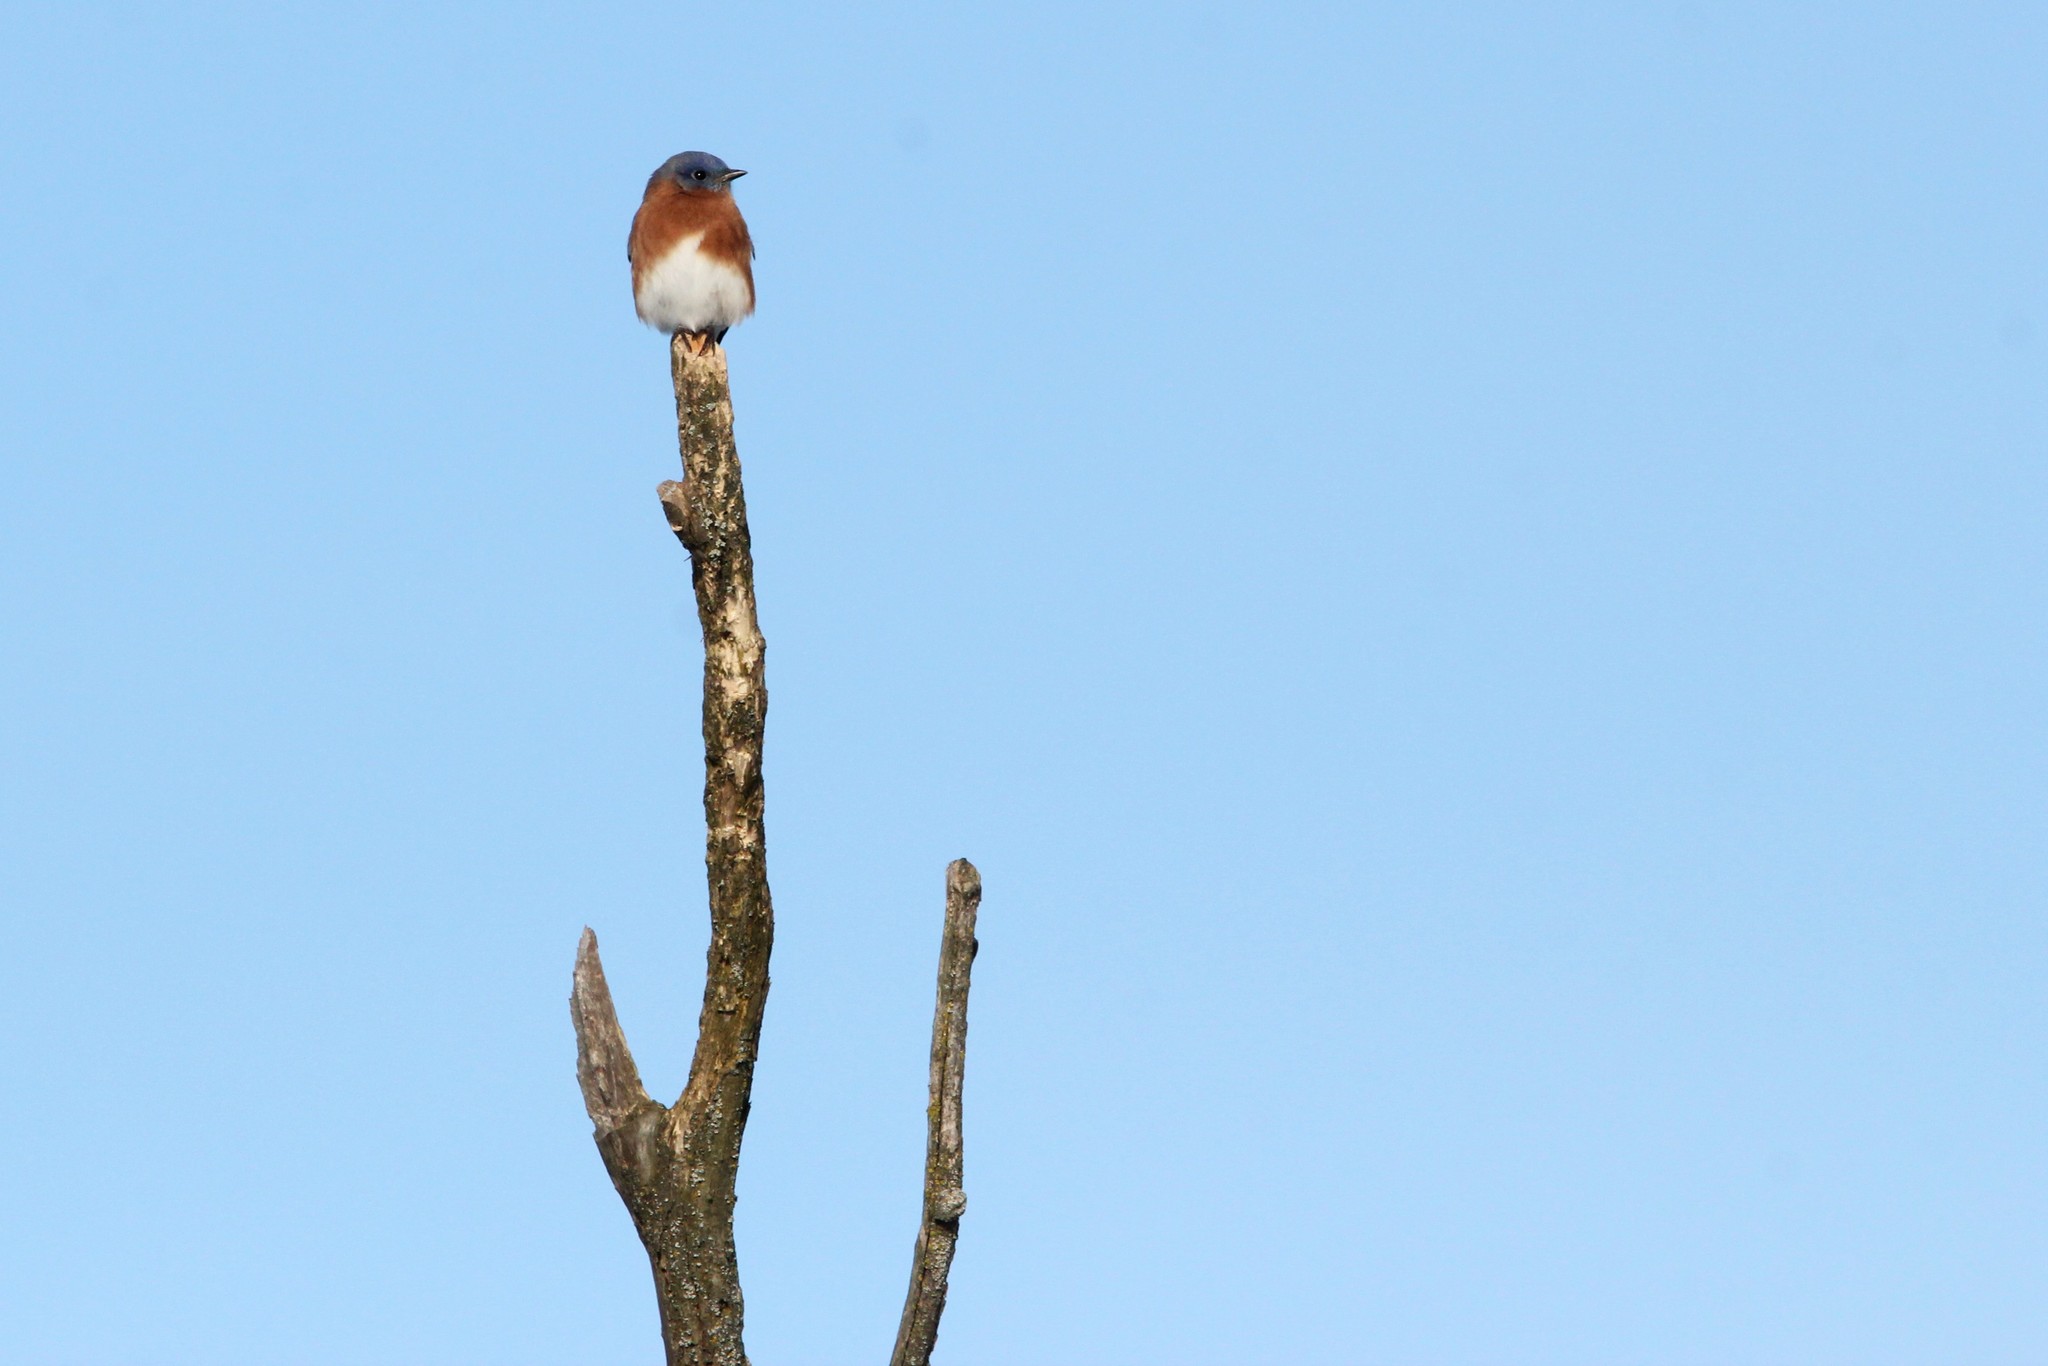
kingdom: Animalia
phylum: Chordata
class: Aves
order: Passeriformes
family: Turdidae
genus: Sialia
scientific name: Sialia sialis
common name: Eastern bluebird
